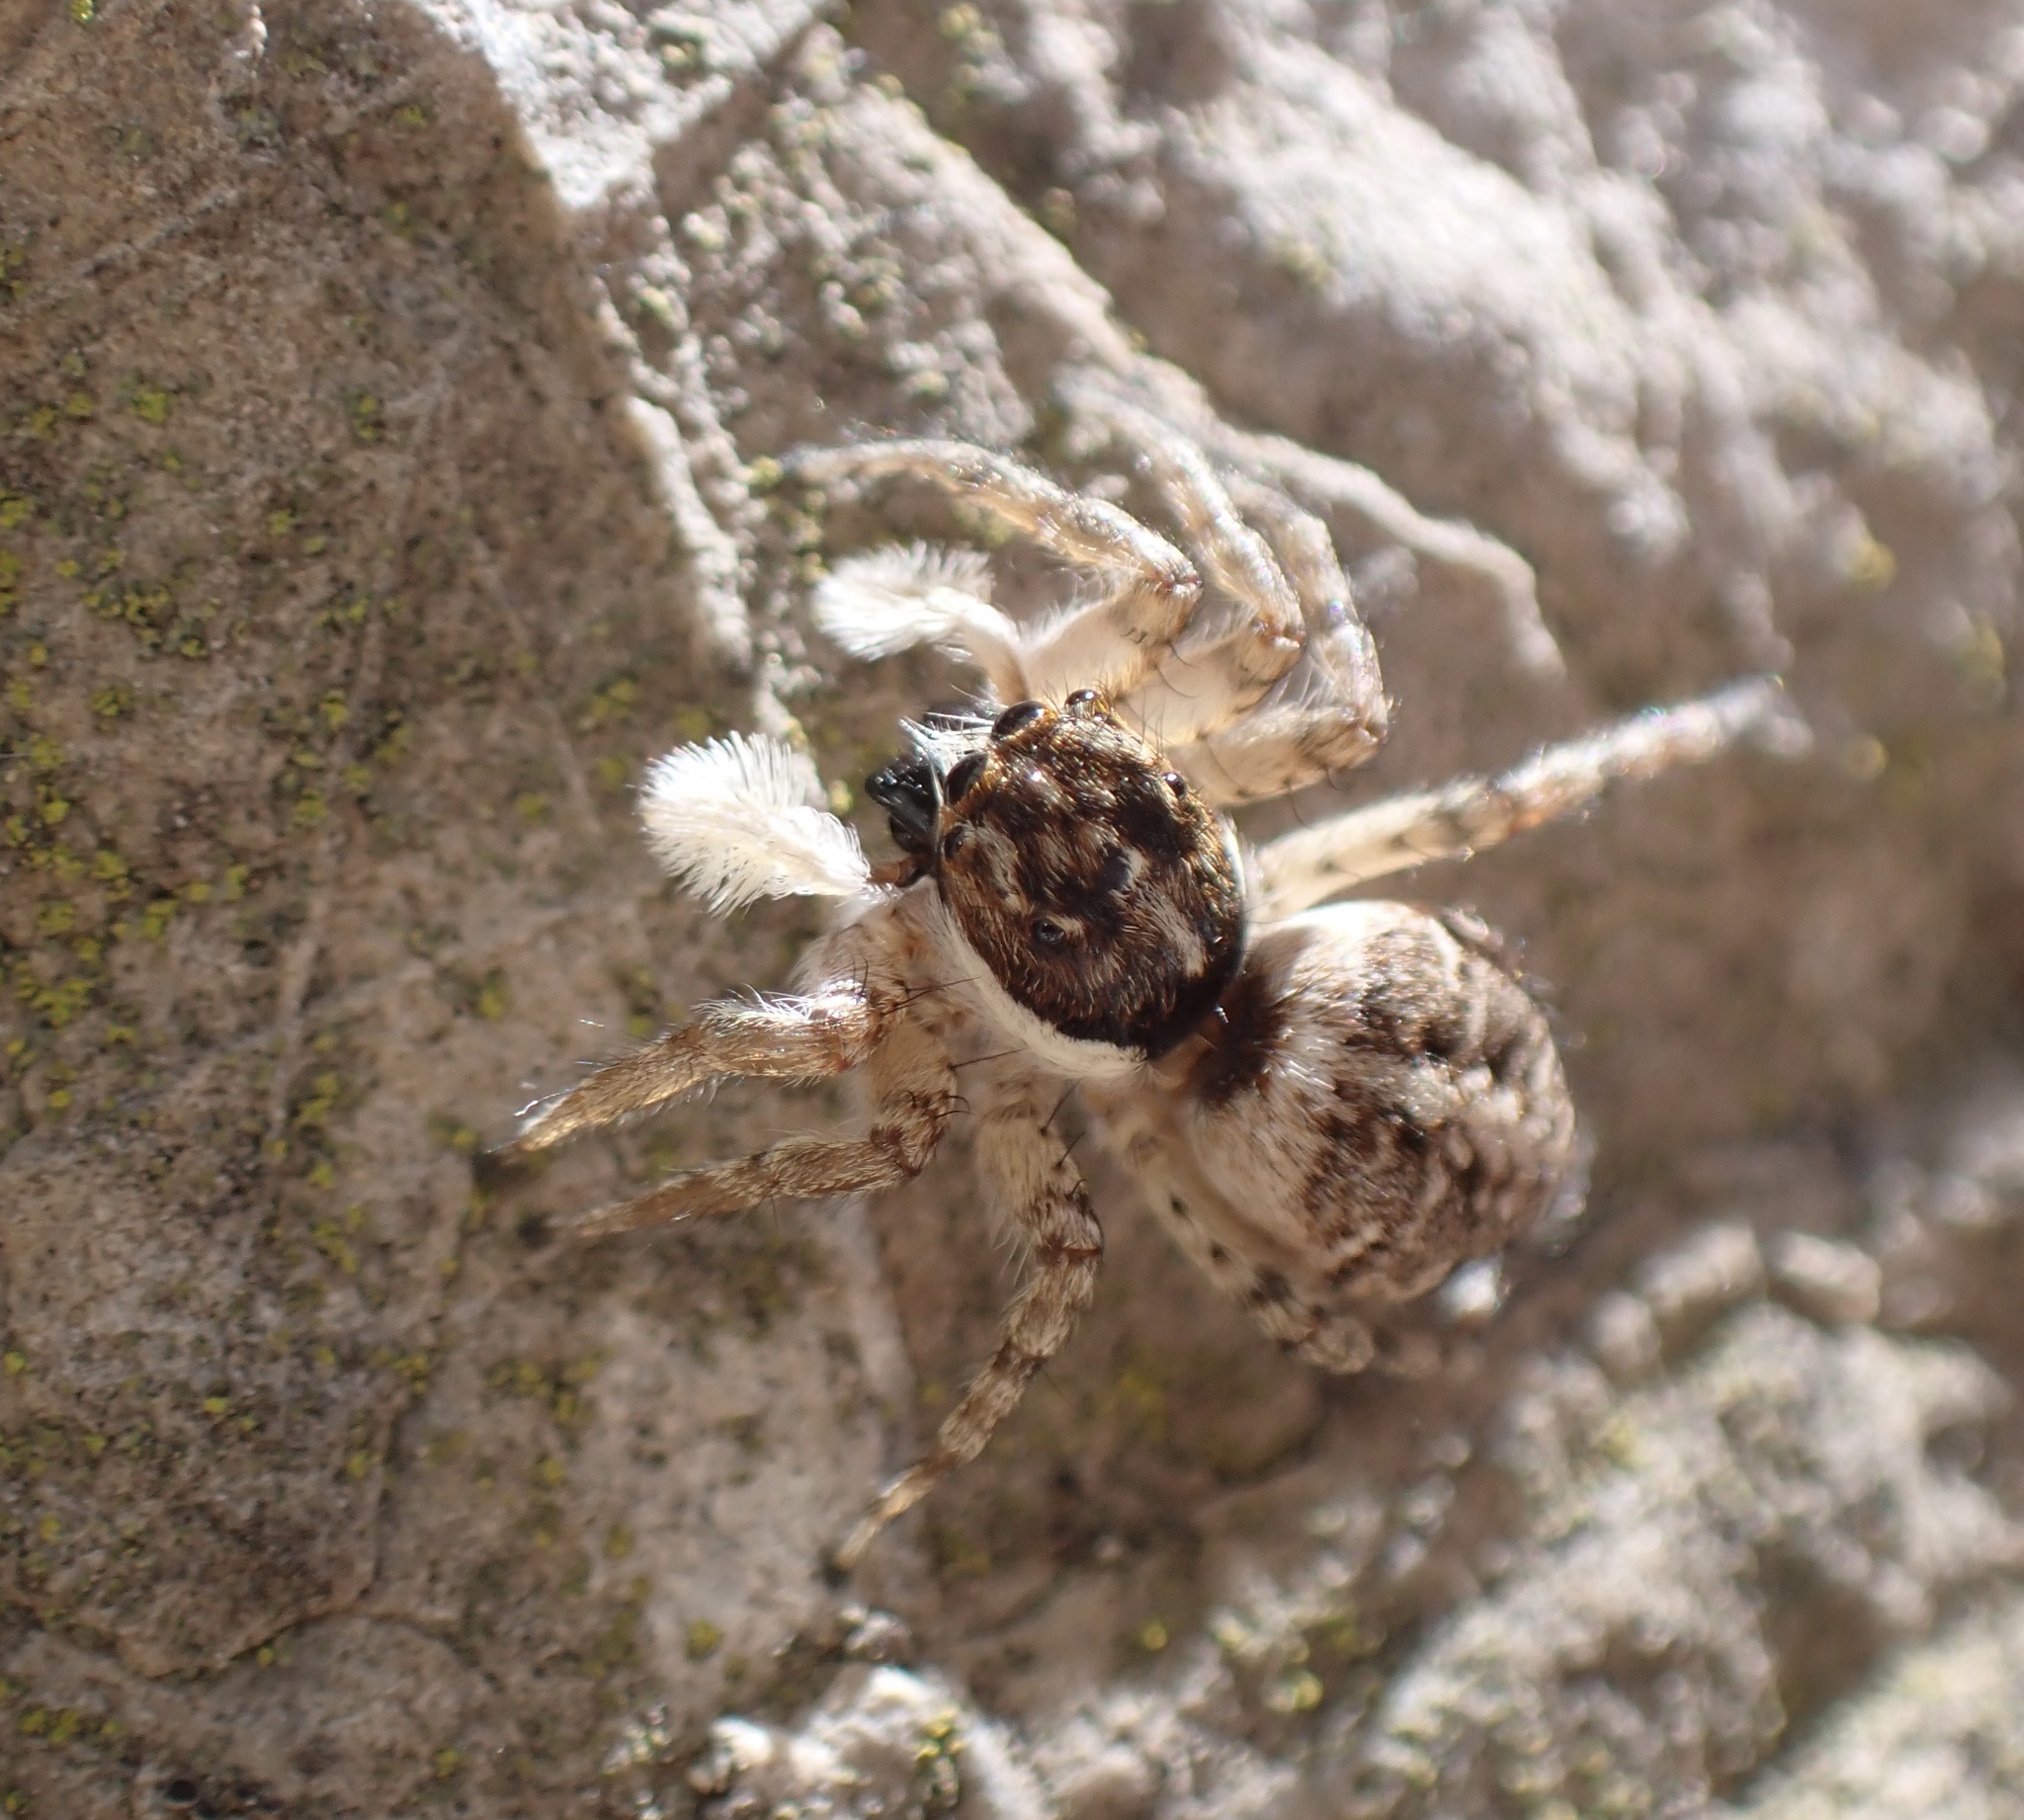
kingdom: Animalia
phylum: Arthropoda
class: Arachnida
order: Araneae
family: Salticidae
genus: Menemerus
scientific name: Menemerus semilimbatus
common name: Jumping spider
